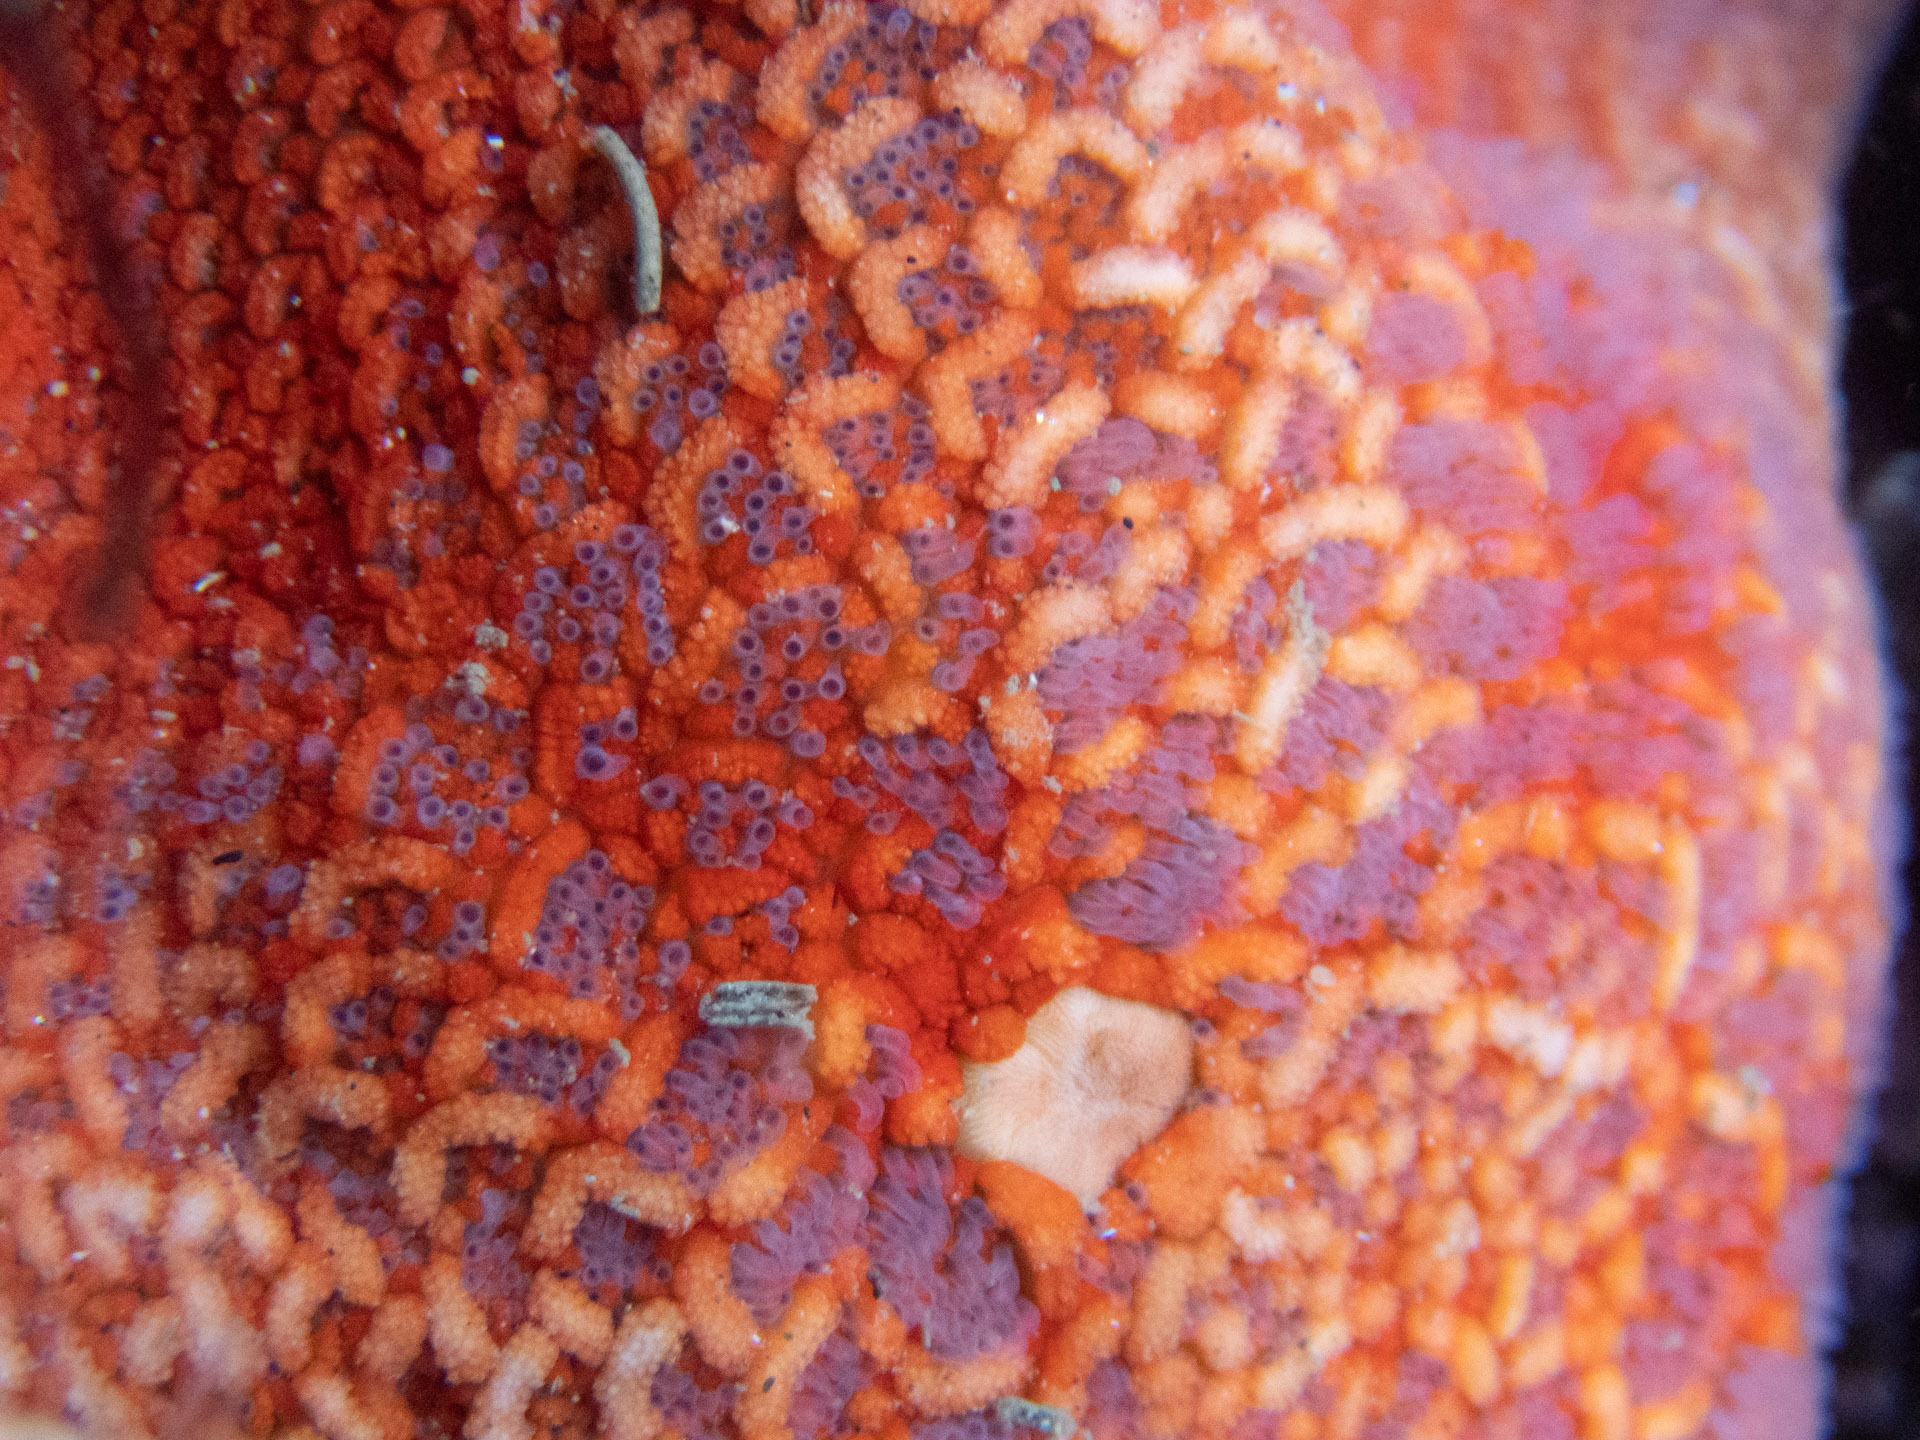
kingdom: Animalia
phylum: Echinodermata
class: Asteroidea
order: Valvatida
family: Asterinidae
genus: Patiria
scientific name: Patiria miniata
